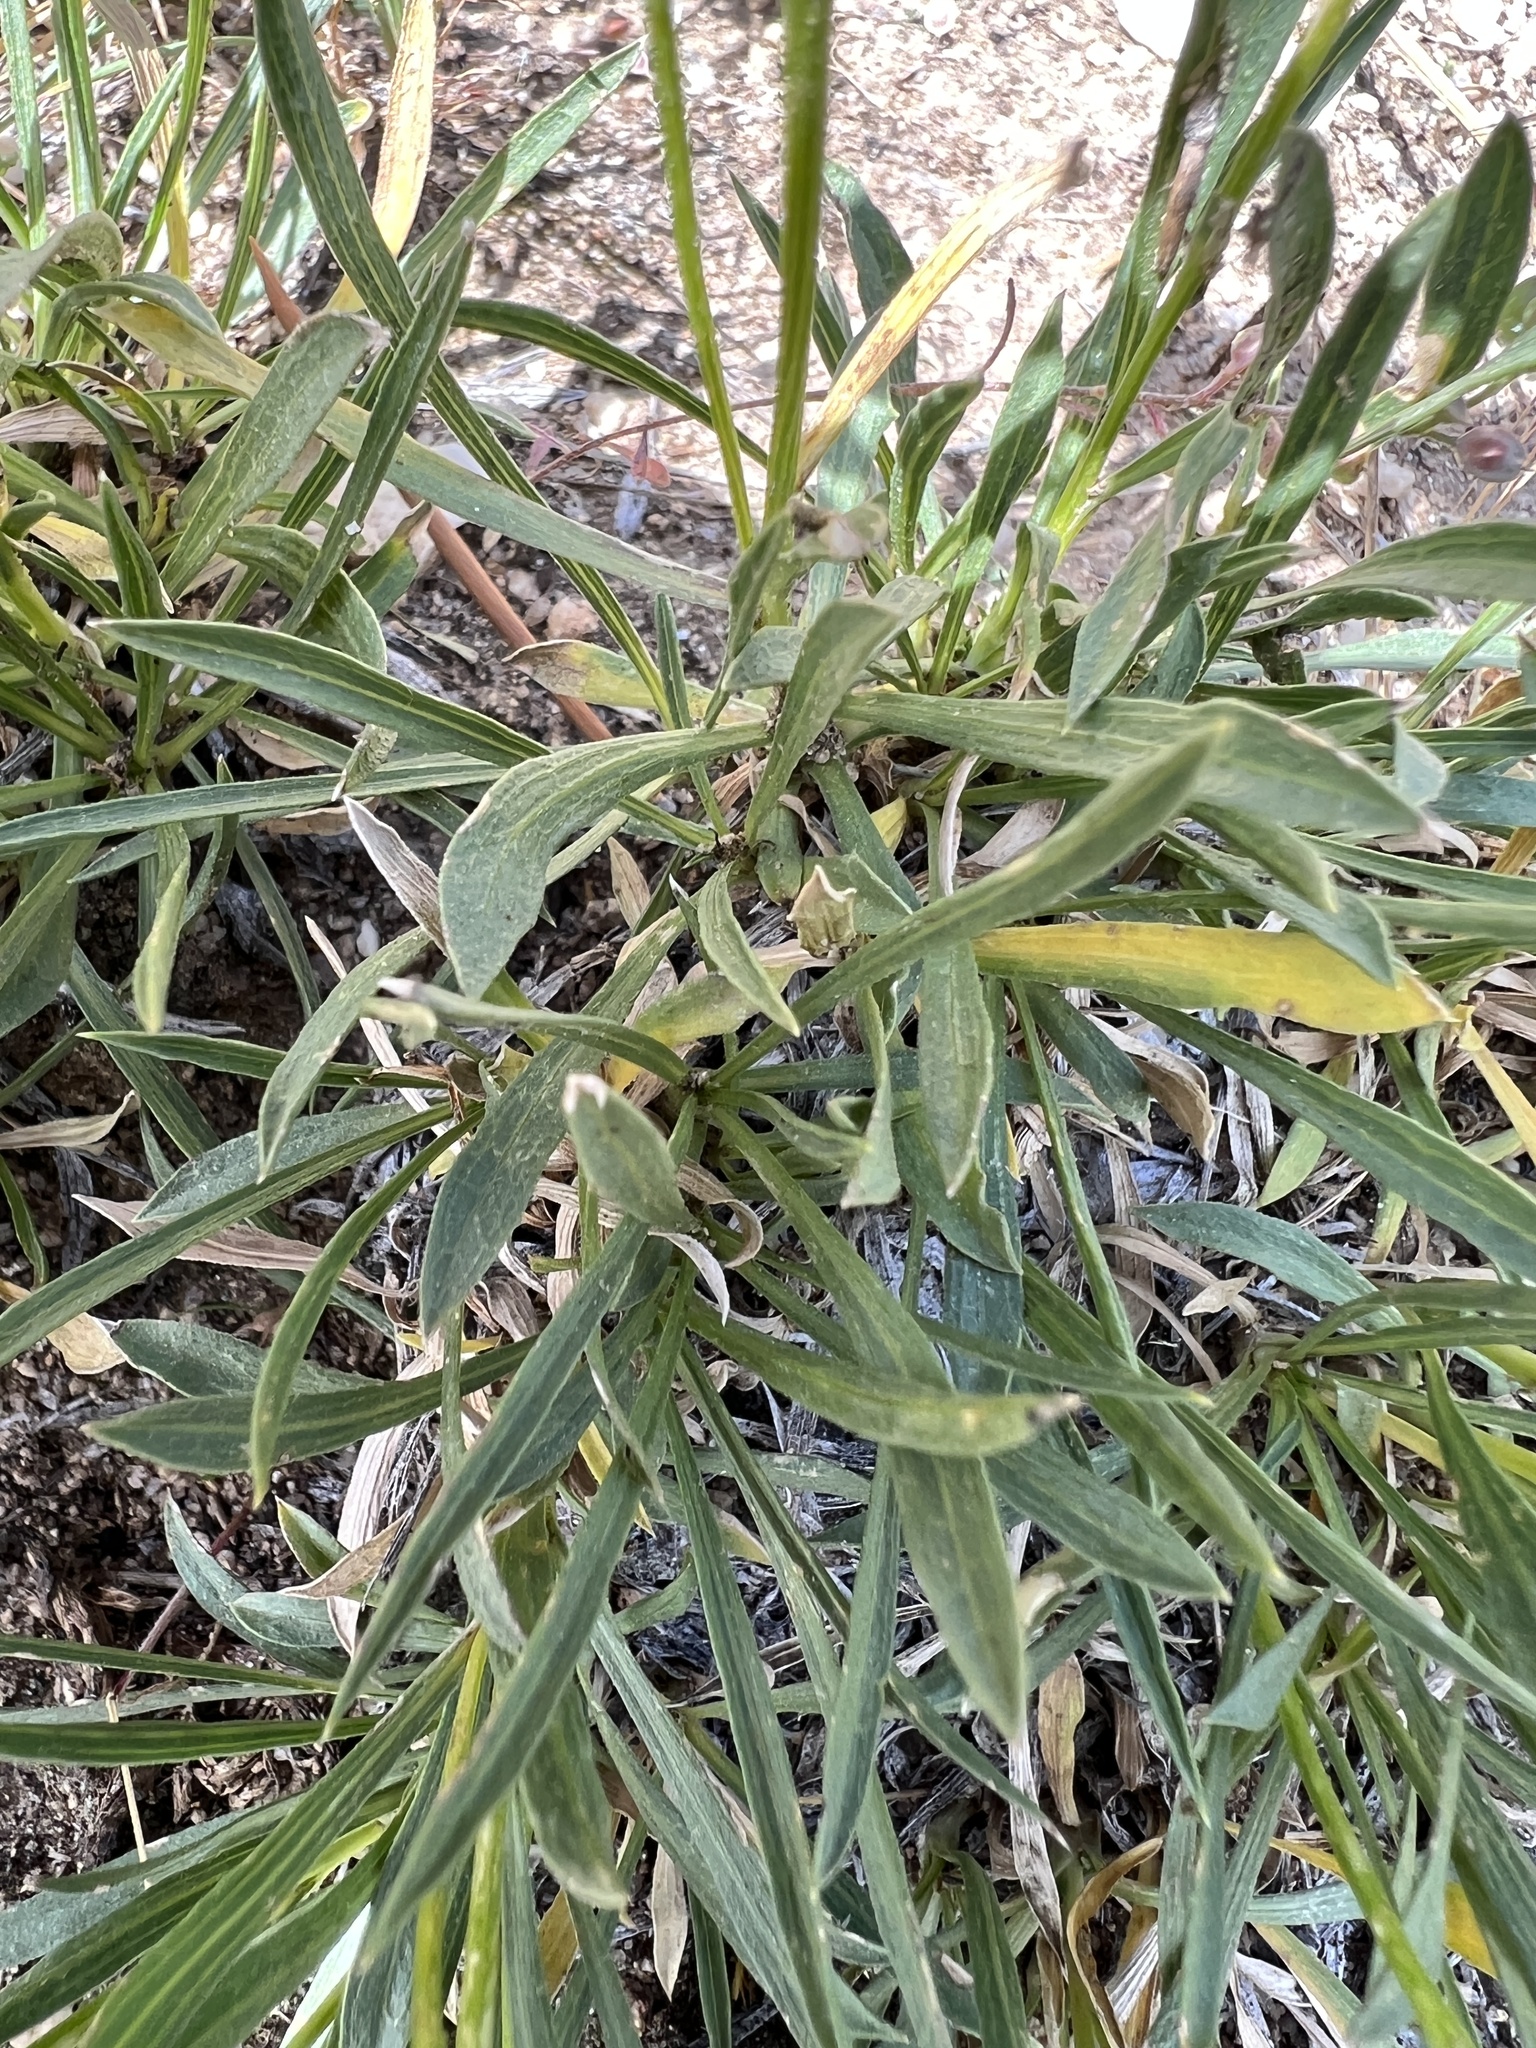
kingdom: Plantae
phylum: Tracheophyta
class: Magnoliopsida
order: Asterales
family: Asteraceae
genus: Stenotus
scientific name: Stenotus acaulis
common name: Stemless goldenweed
